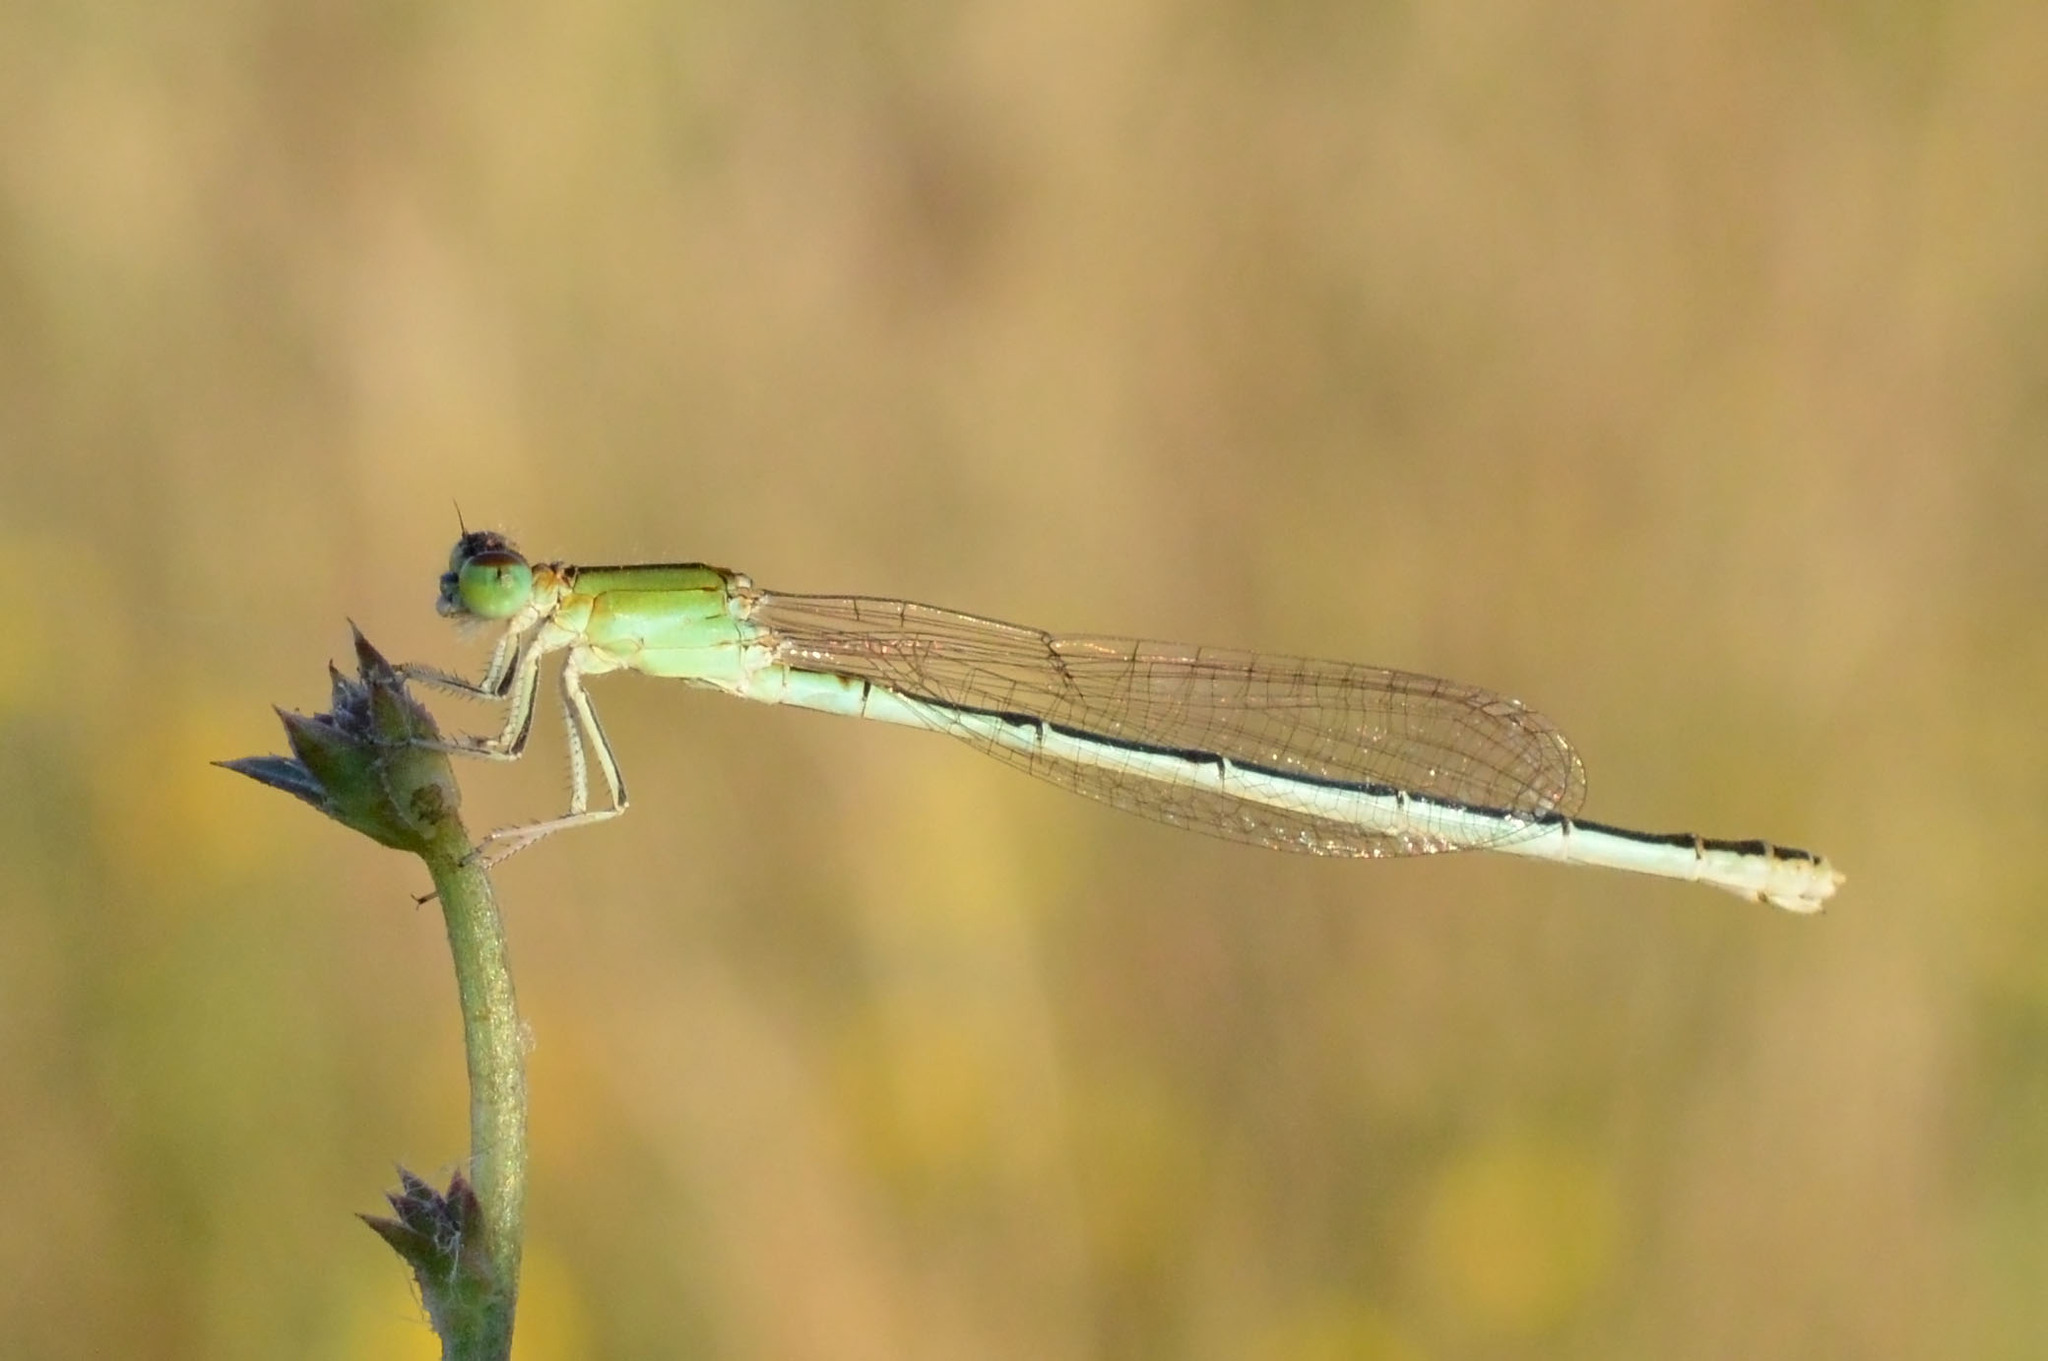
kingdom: Animalia
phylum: Arthropoda
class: Insecta
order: Odonata
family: Coenagrionidae
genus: Ischnura
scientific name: Ischnura pumilio
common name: Scarce blue-tailed damselfly
